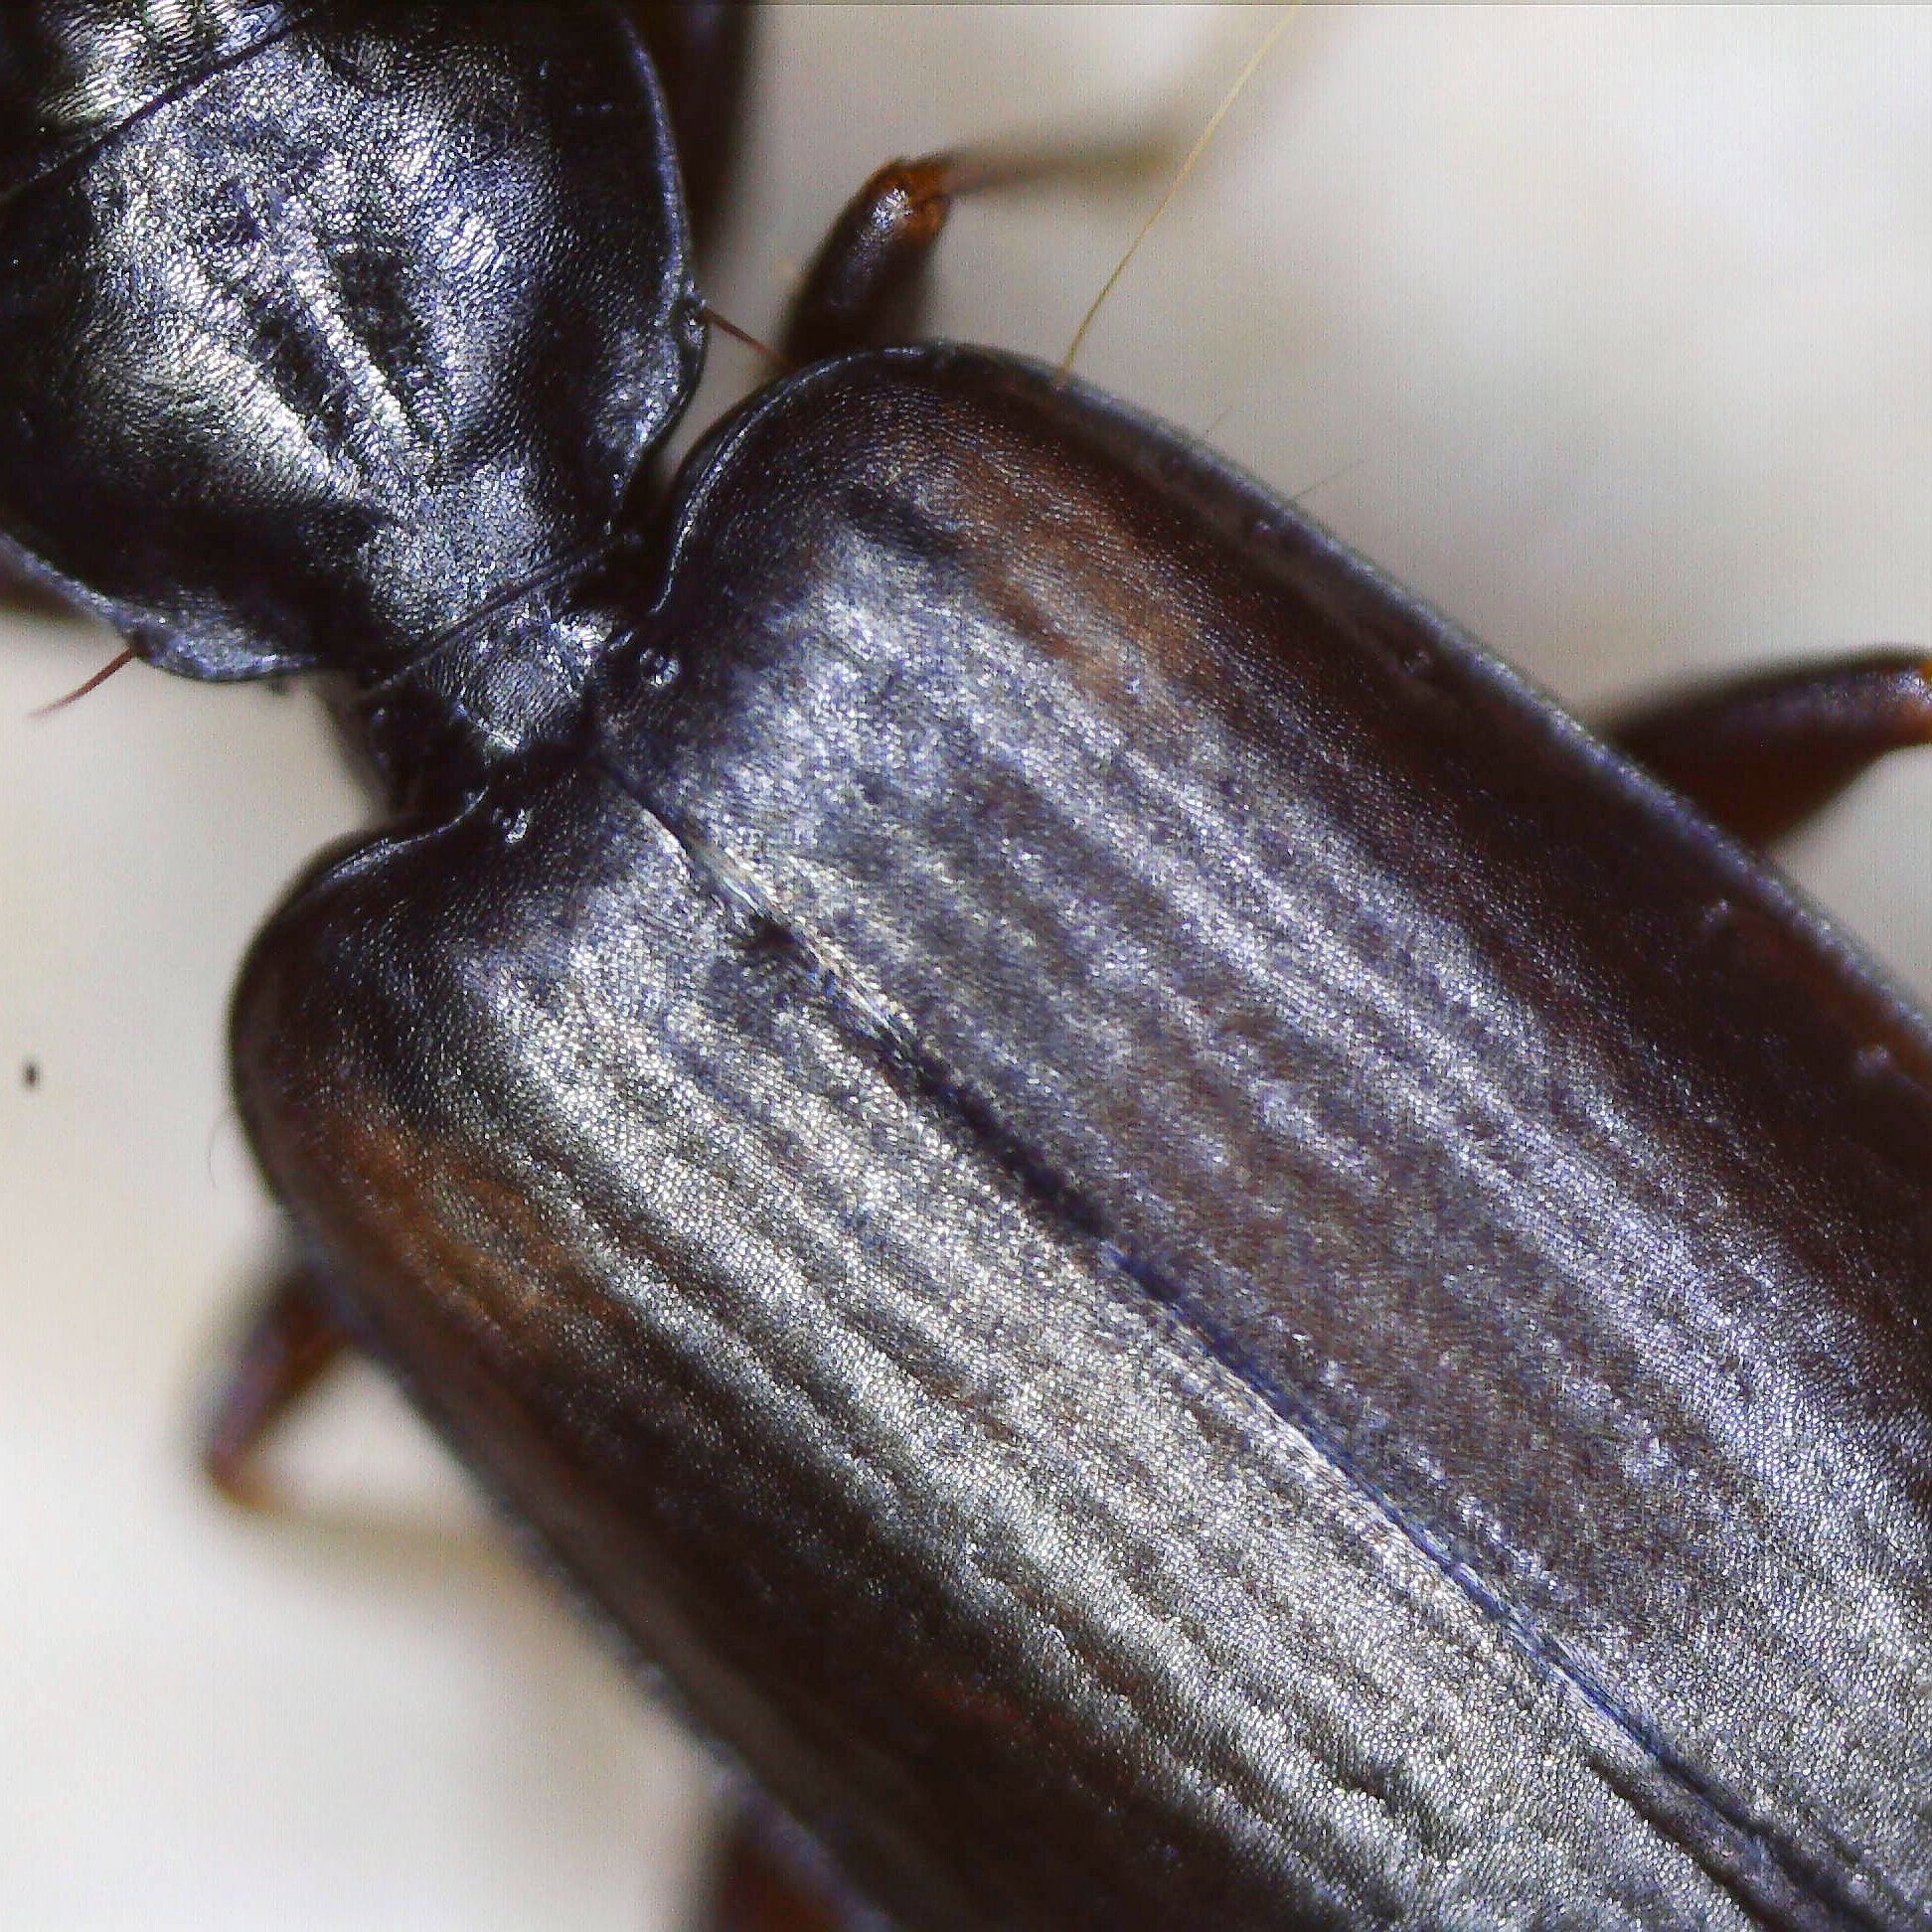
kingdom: Animalia
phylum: Arthropoda
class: Insecta
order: Coleoptera
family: Carabidae
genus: Syntomus
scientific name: Syntomus obscuroguttatus
